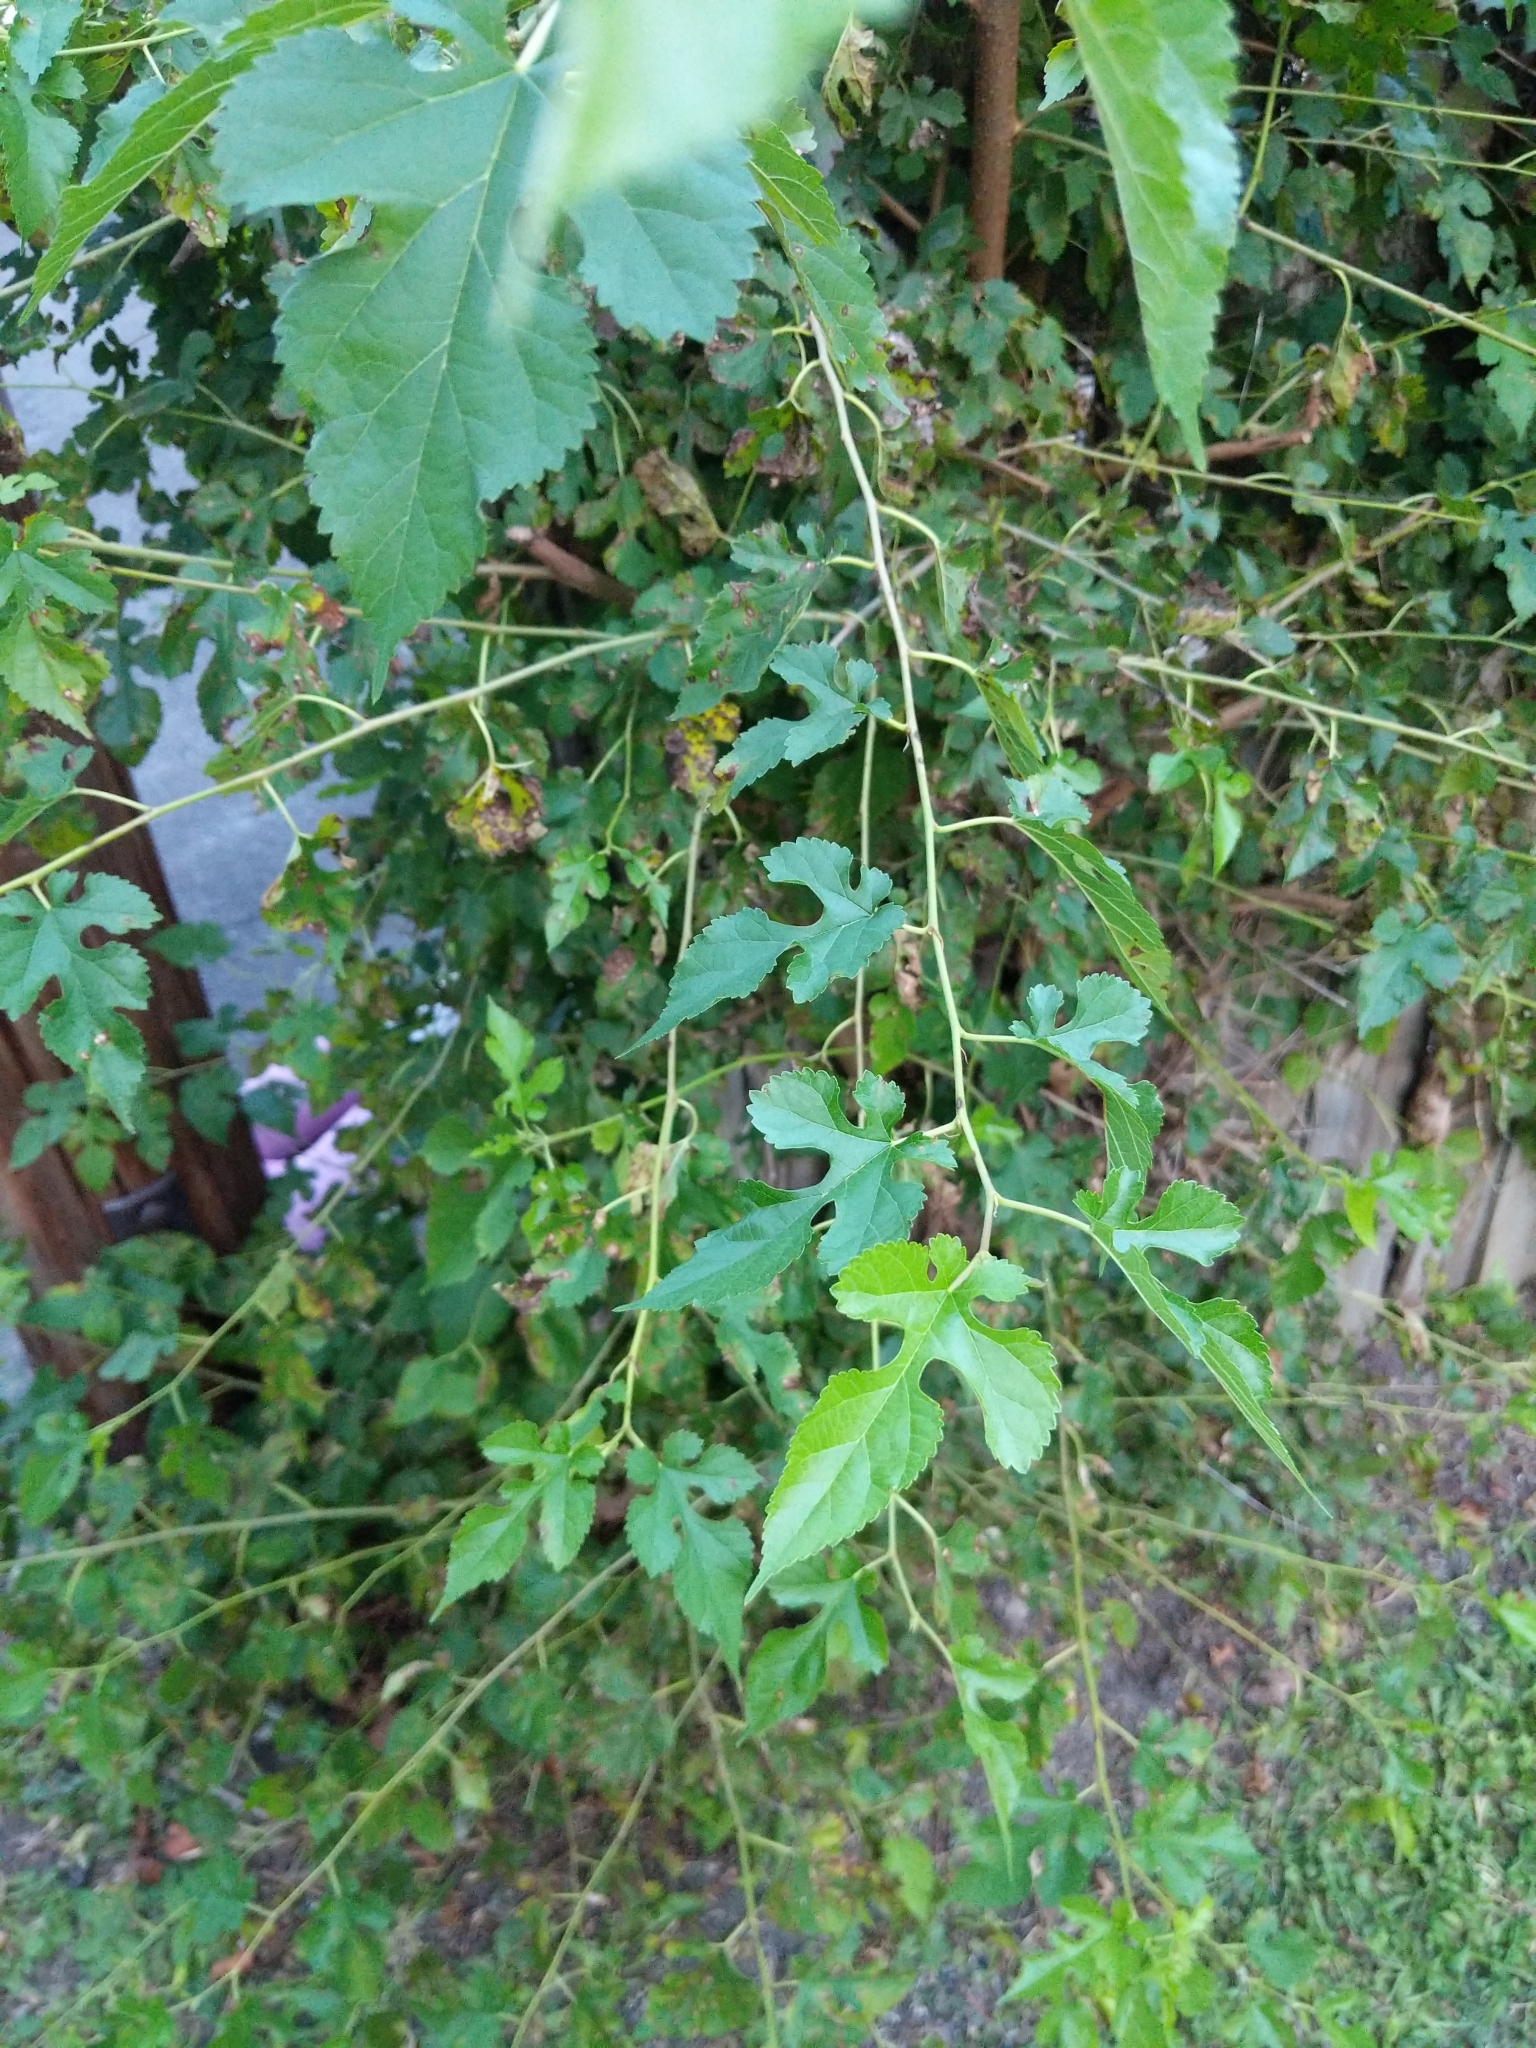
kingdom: Plantae
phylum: Tracheophyta
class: Magnoliopsida
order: Rosales
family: Moraceae
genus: Morus
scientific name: Morus alba
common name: White mulberry
